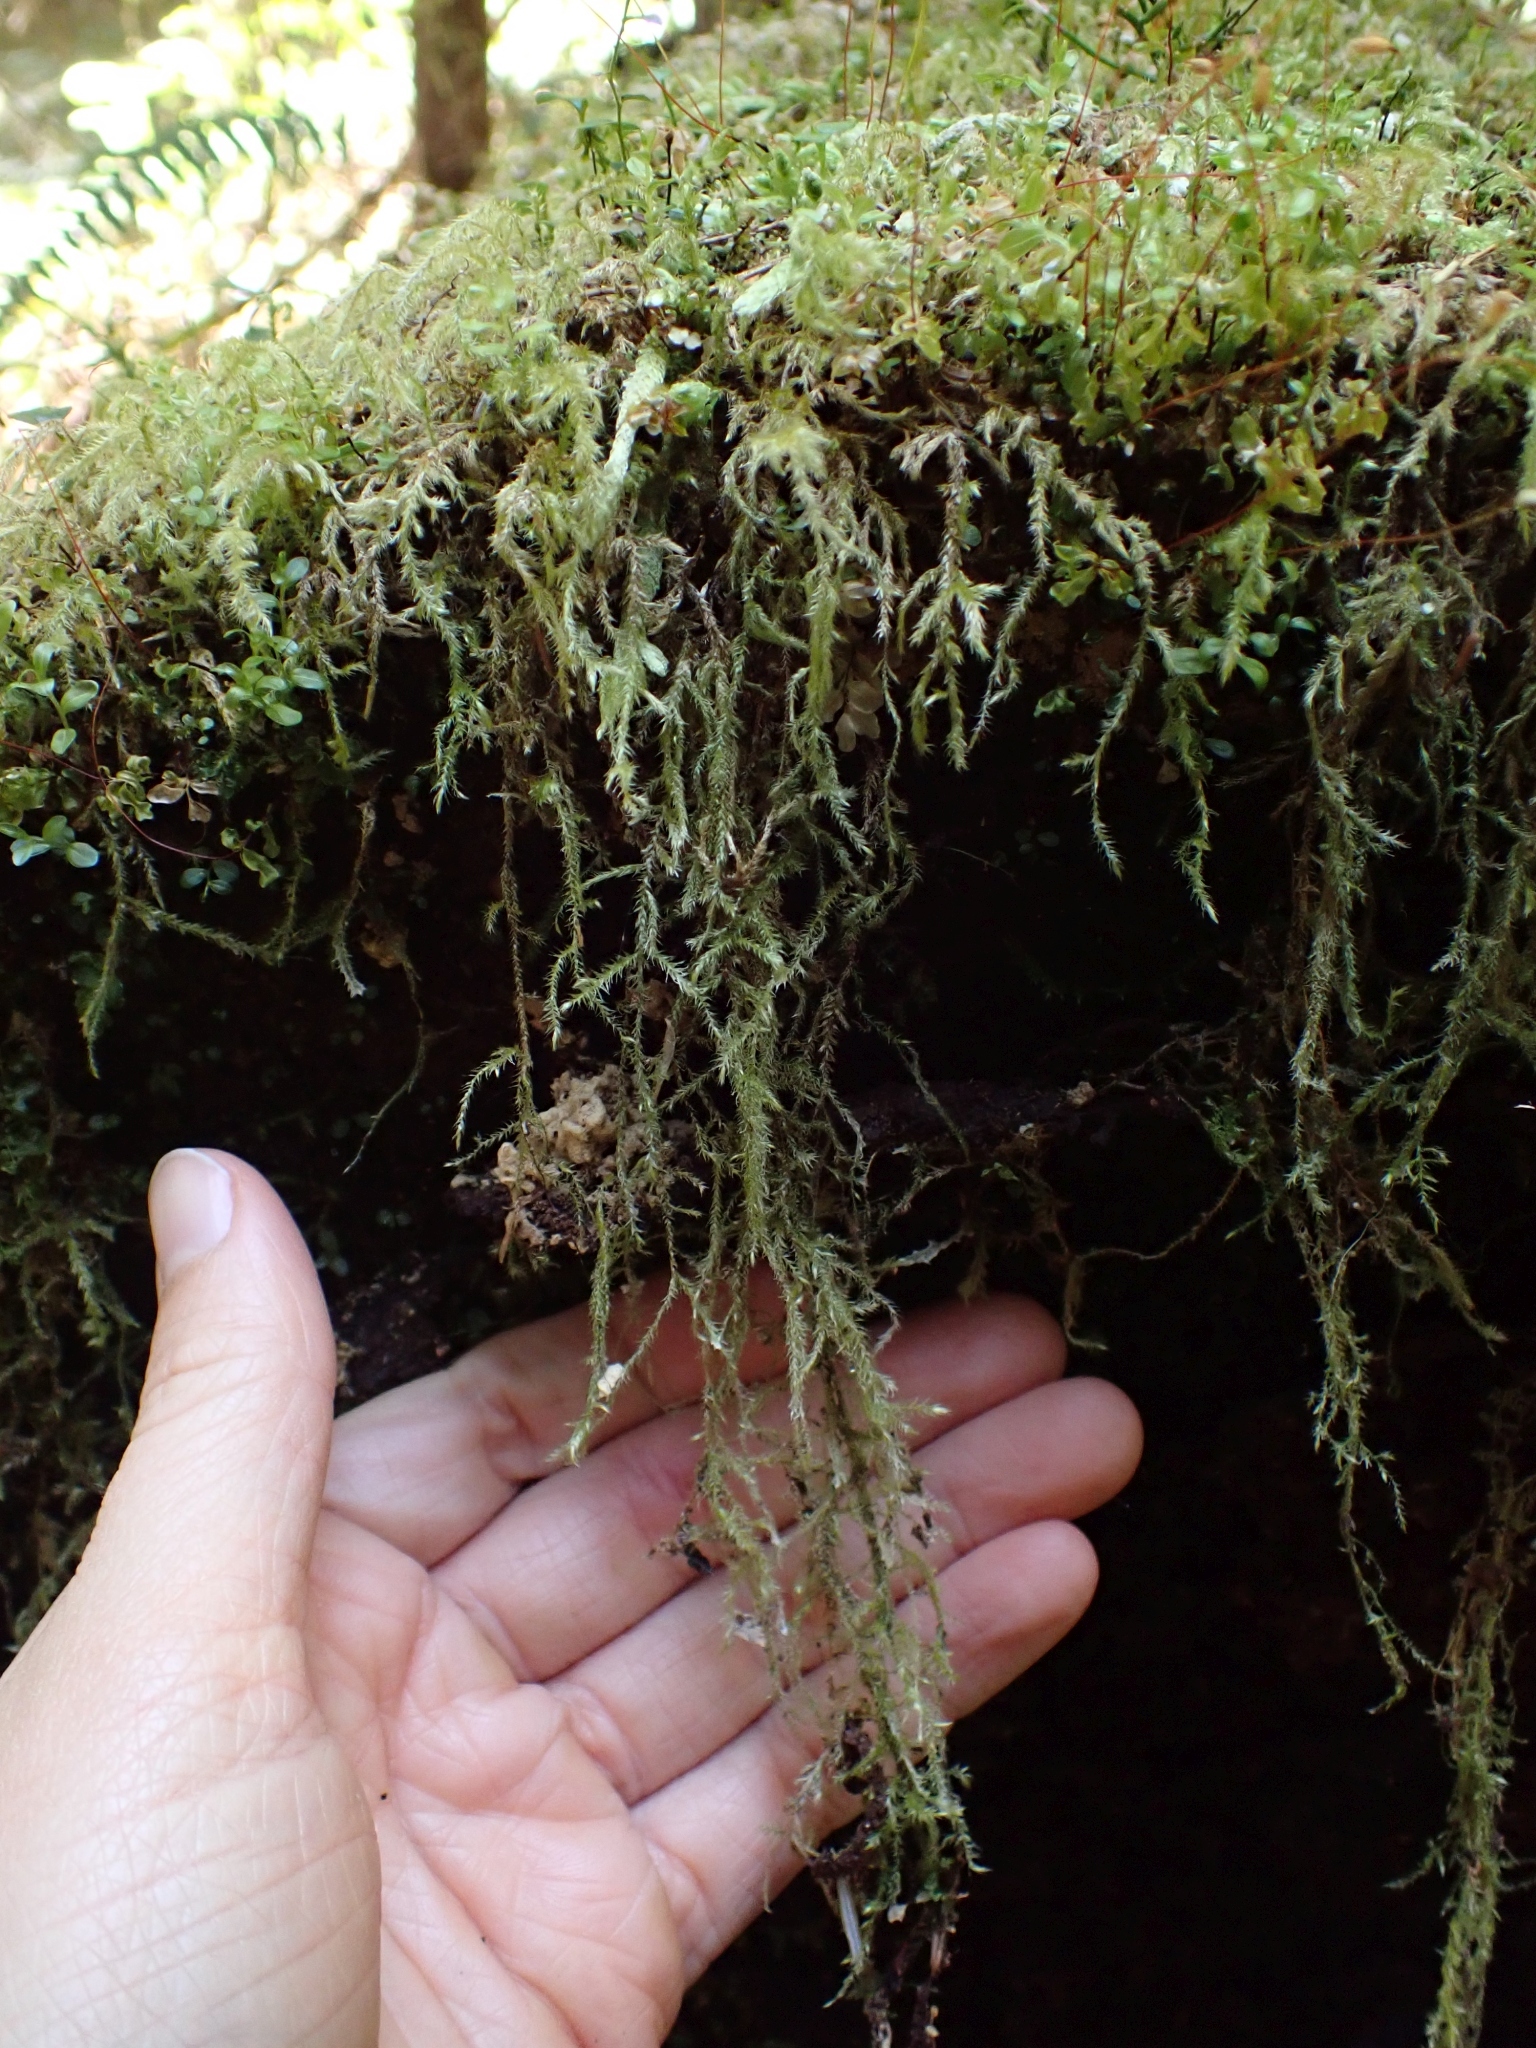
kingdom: Plantae
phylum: Bryophyta
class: Bryopsida
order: Hypnales
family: Lembophyllaceae
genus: Pseudisothecium
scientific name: Pseudisothecium stoloniferum
